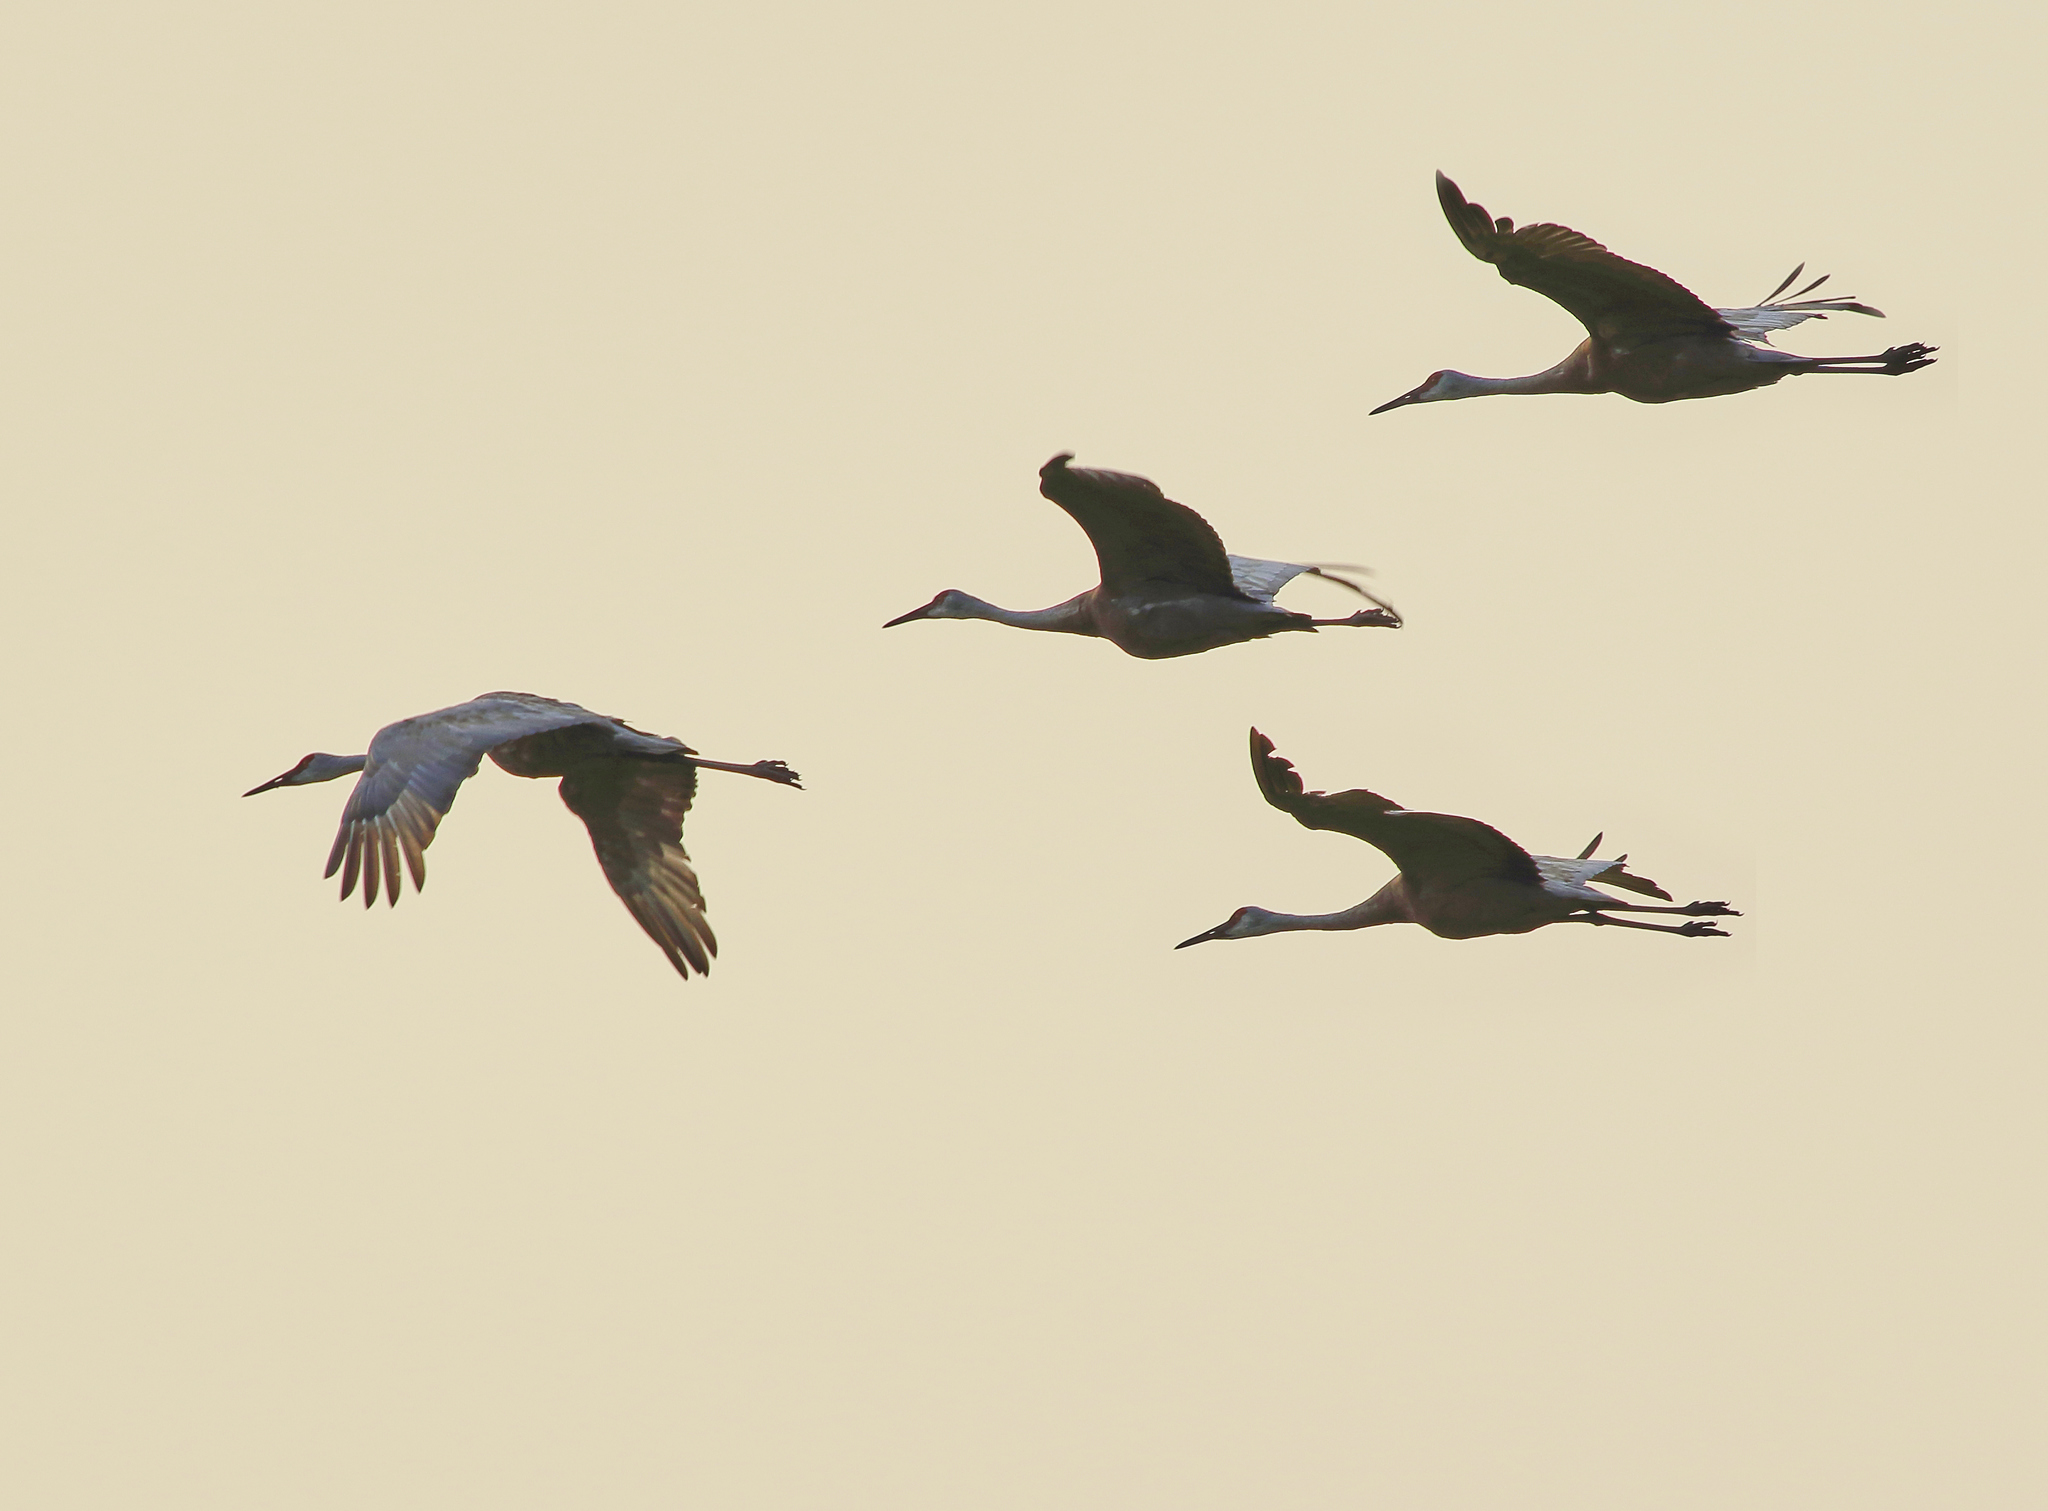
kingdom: Animalia
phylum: Chordata
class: Aves
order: Gruiformes
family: Gruidae
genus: Grus
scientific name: Grus canadensis
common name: Sandhill crane
